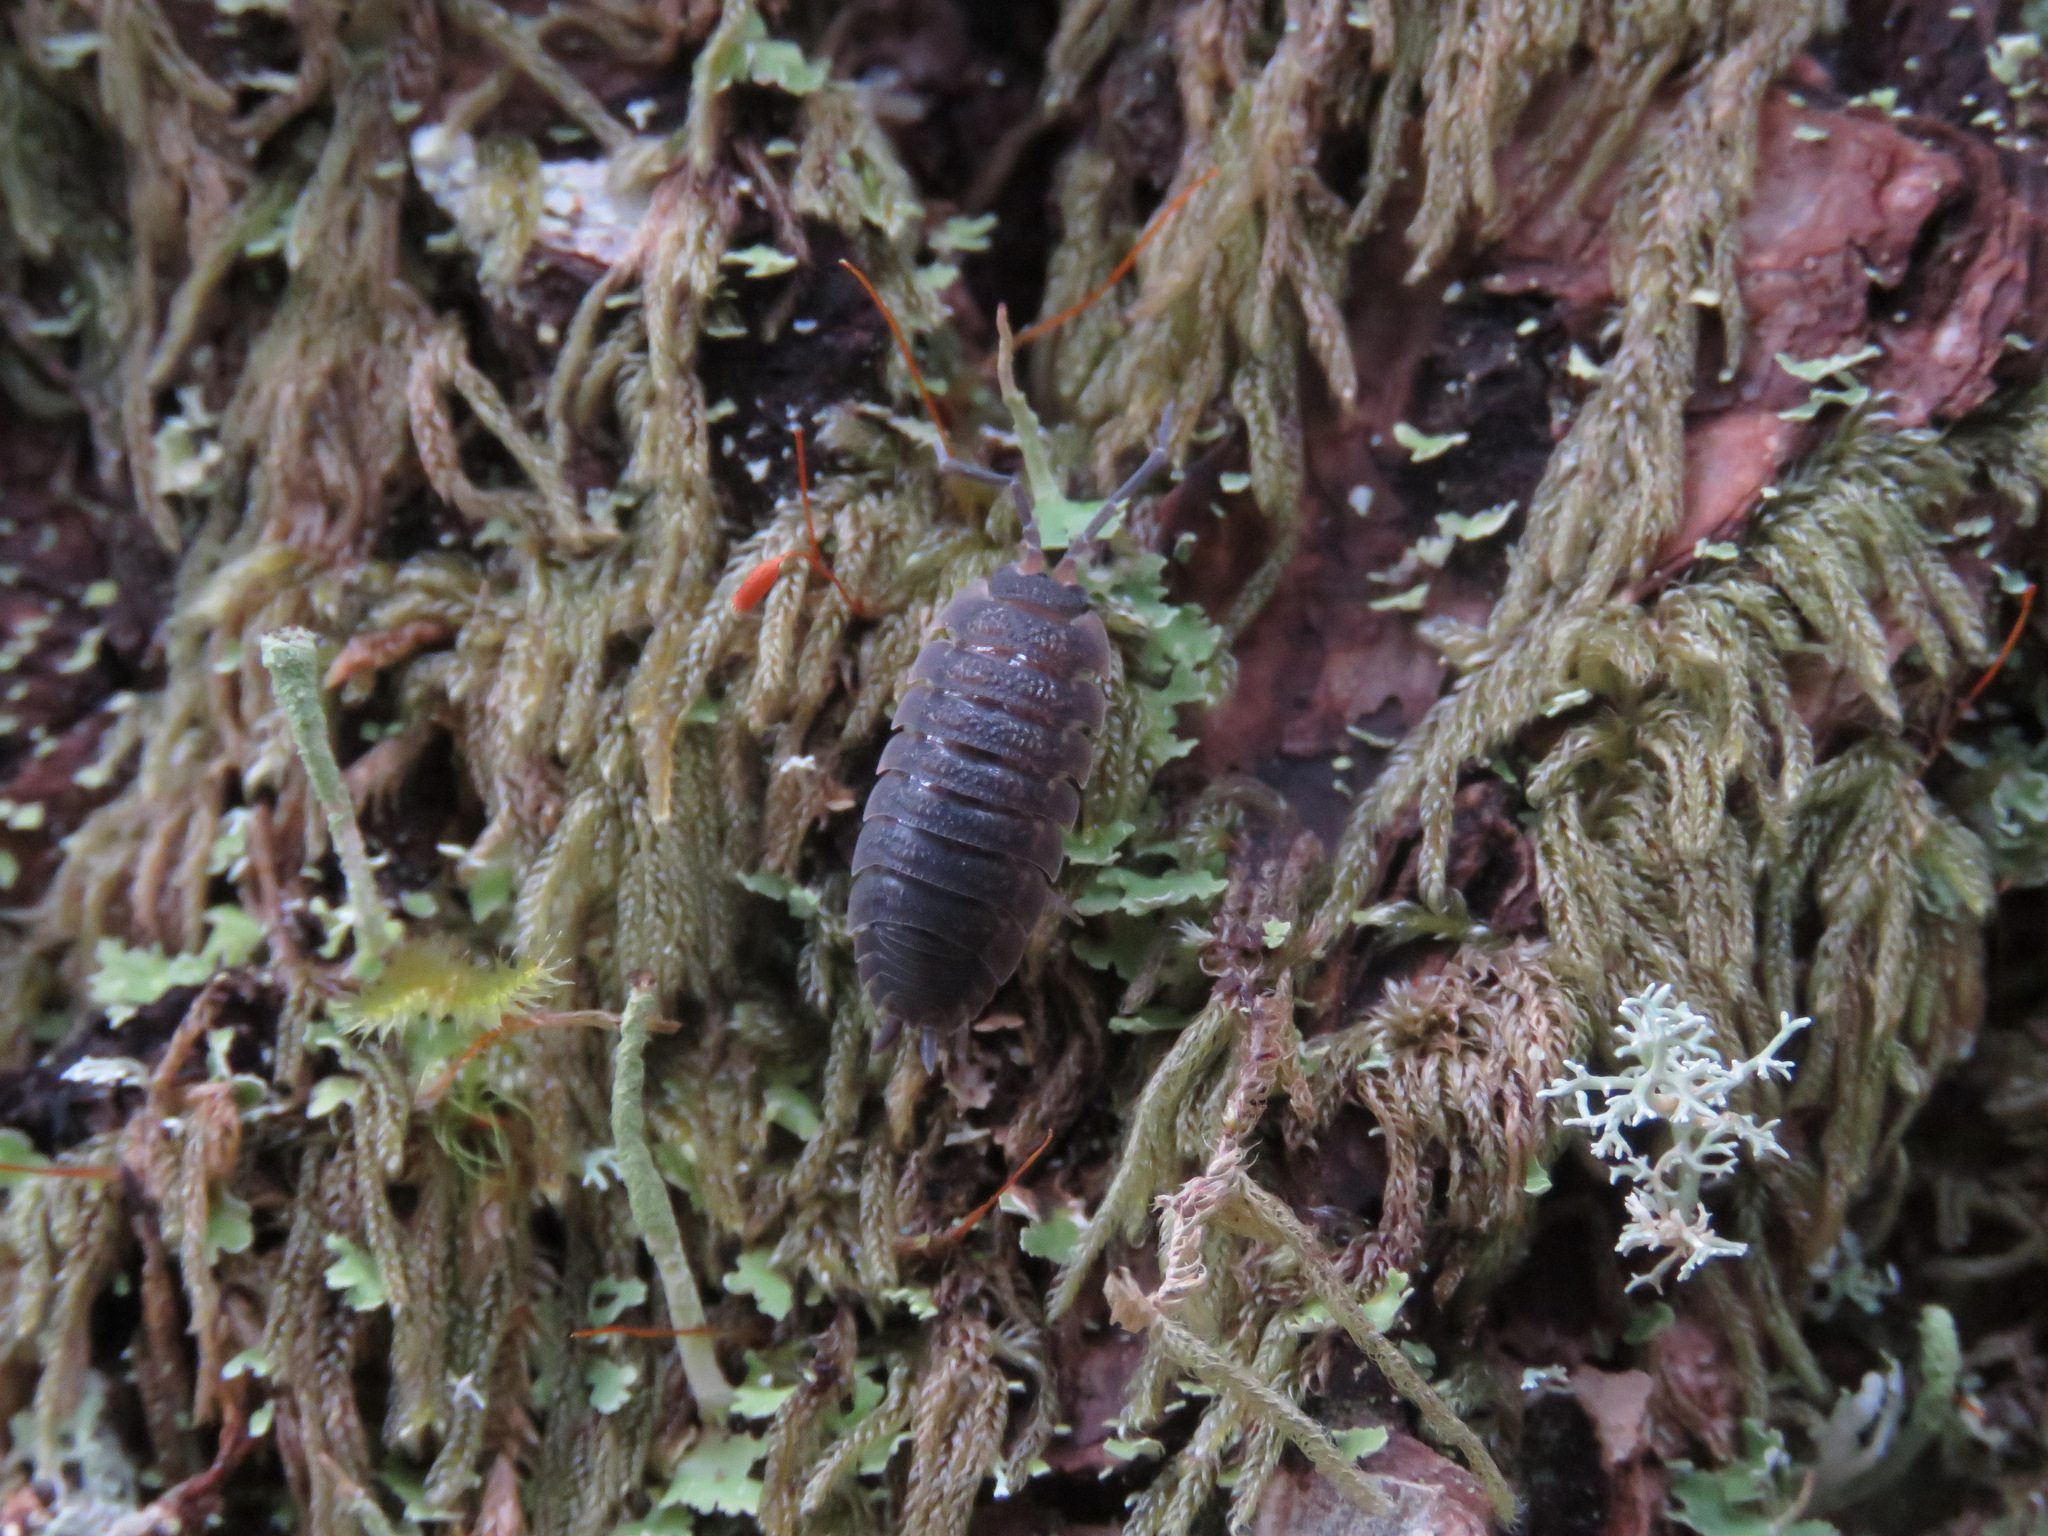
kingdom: Animalia
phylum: Arthropoda
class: Malacostraca
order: Isopoda
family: Porcellionidae
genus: Porcellio
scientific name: Porcellio scaber
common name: Common rough woodlouse
